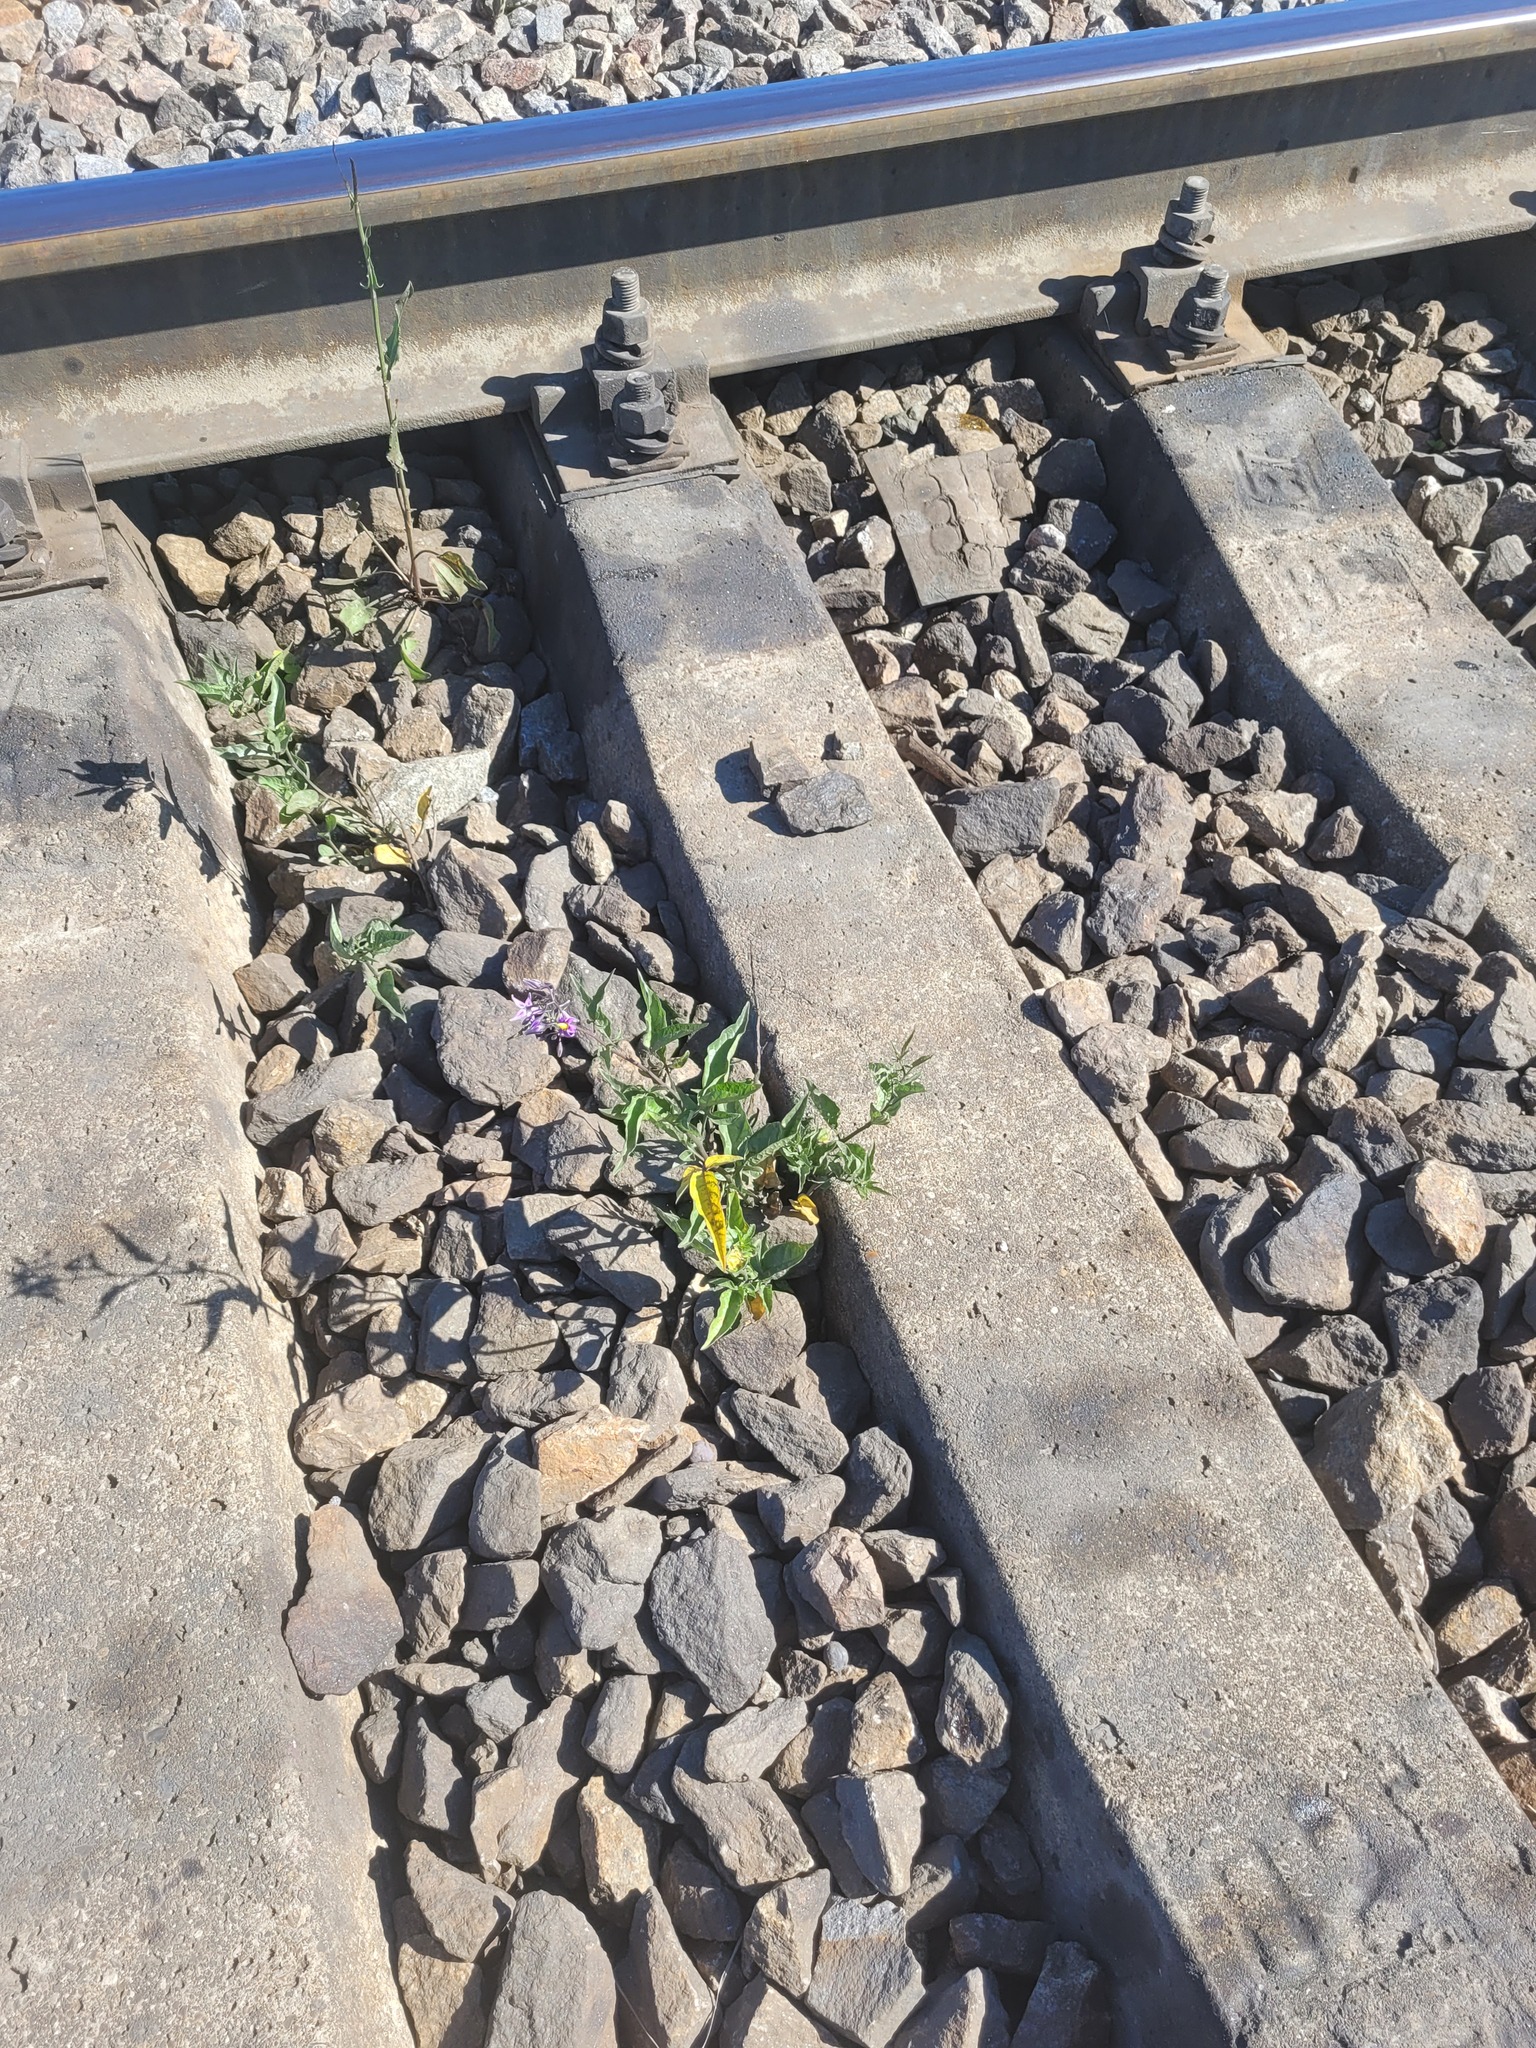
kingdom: Plantae
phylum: Tracheophyta
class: Magnoliopsida
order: Solanales
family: Solanaceae
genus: Solanum
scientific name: Solanum dulcamara
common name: Climbing nightshade
